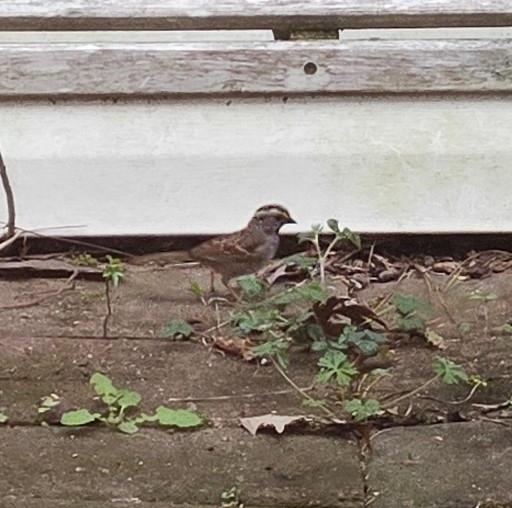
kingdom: Animalia
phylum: Chordata
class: Aves
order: Passeriformes
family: Passerellidae
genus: Zonotrichia
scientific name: Zonotrichia albicollis
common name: White-throated sparrow
